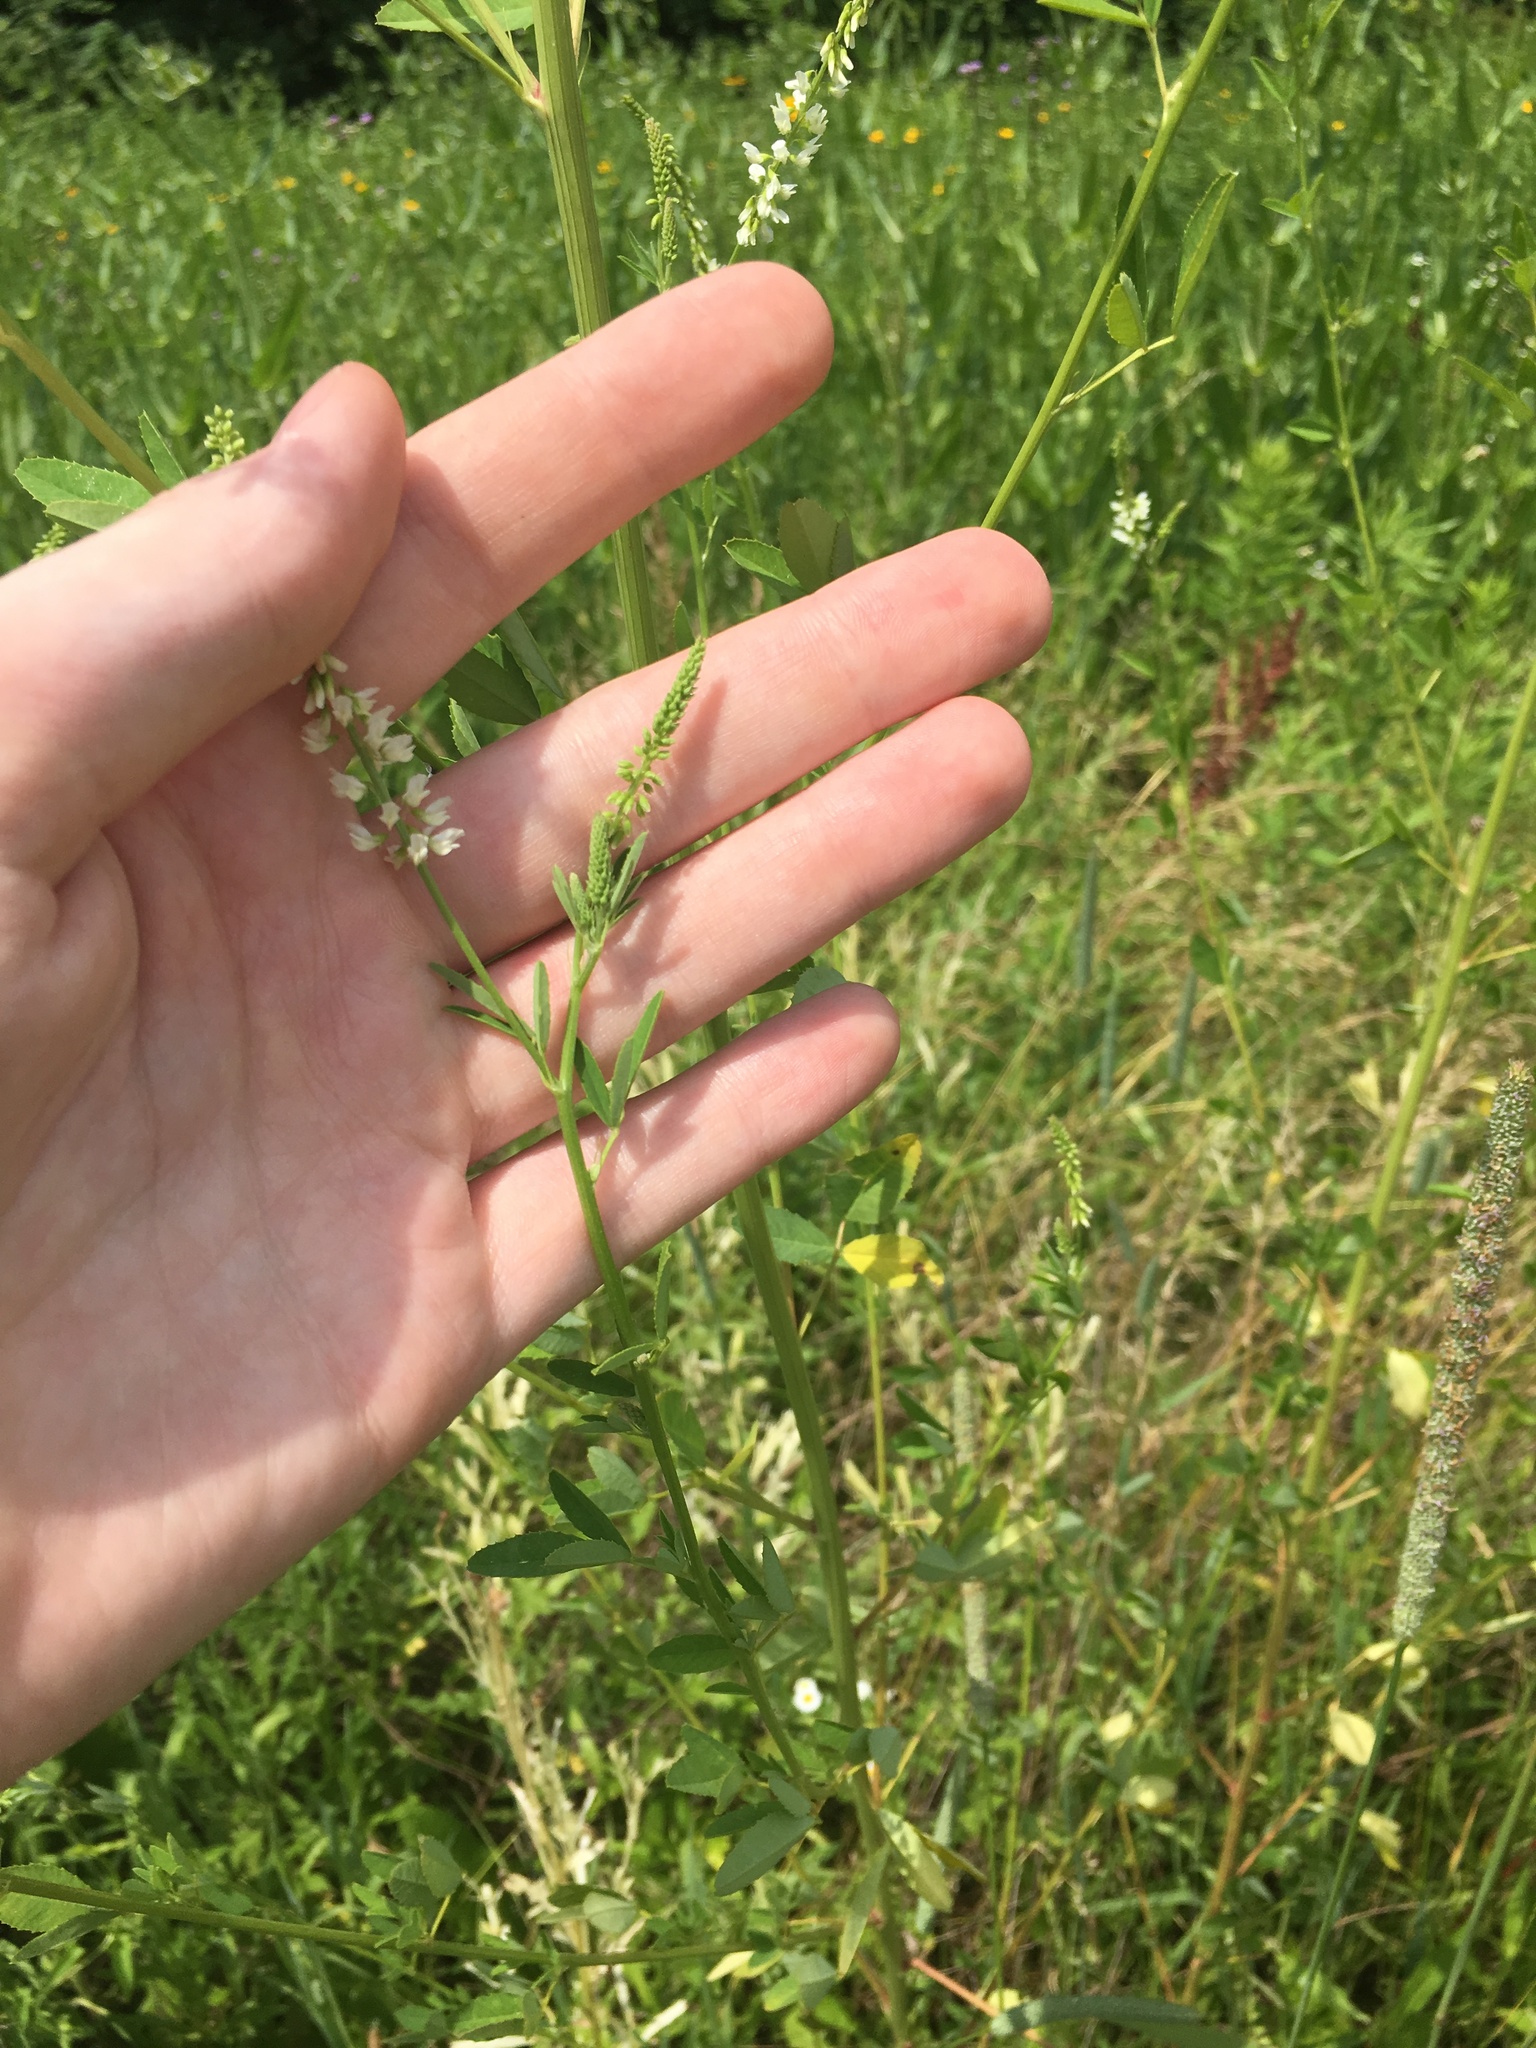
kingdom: Plantae
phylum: Tracheophyta
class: Magnoliopsida
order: Fabales
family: Fabaceae
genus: Melilotus
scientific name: Melilotus albus
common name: White melilot
